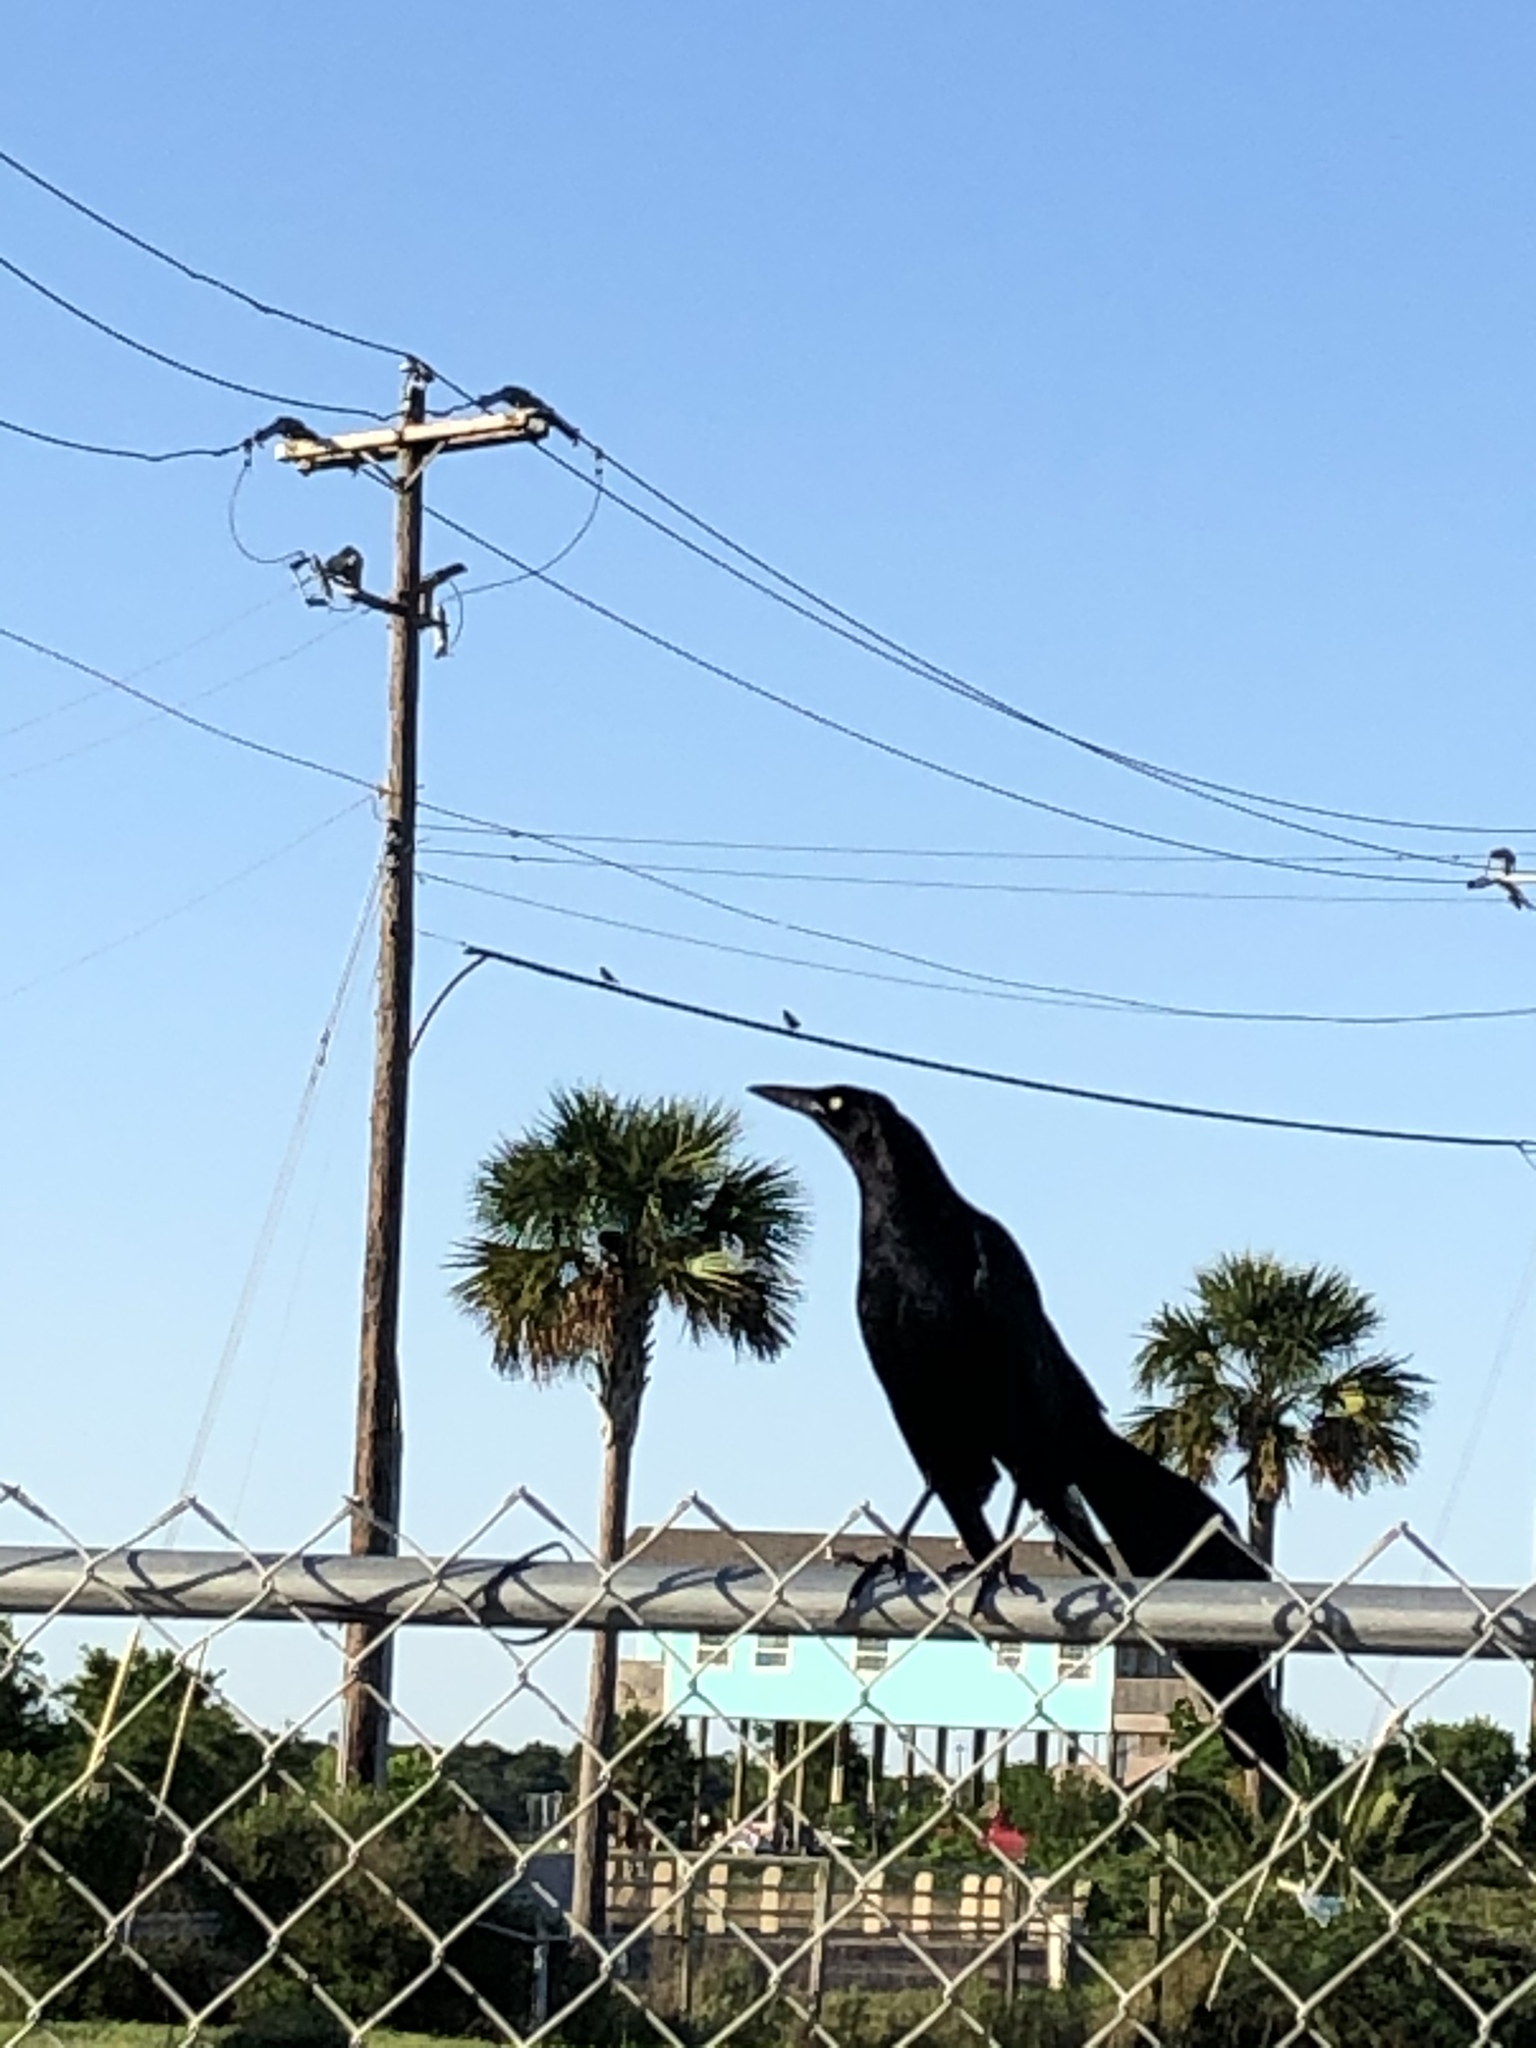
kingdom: Animalia
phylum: Chordata
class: Aves
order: Passeriformes
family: Icteridae
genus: Quiscalus
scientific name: Quiscalus mexicanus
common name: Great-tailed grackle
